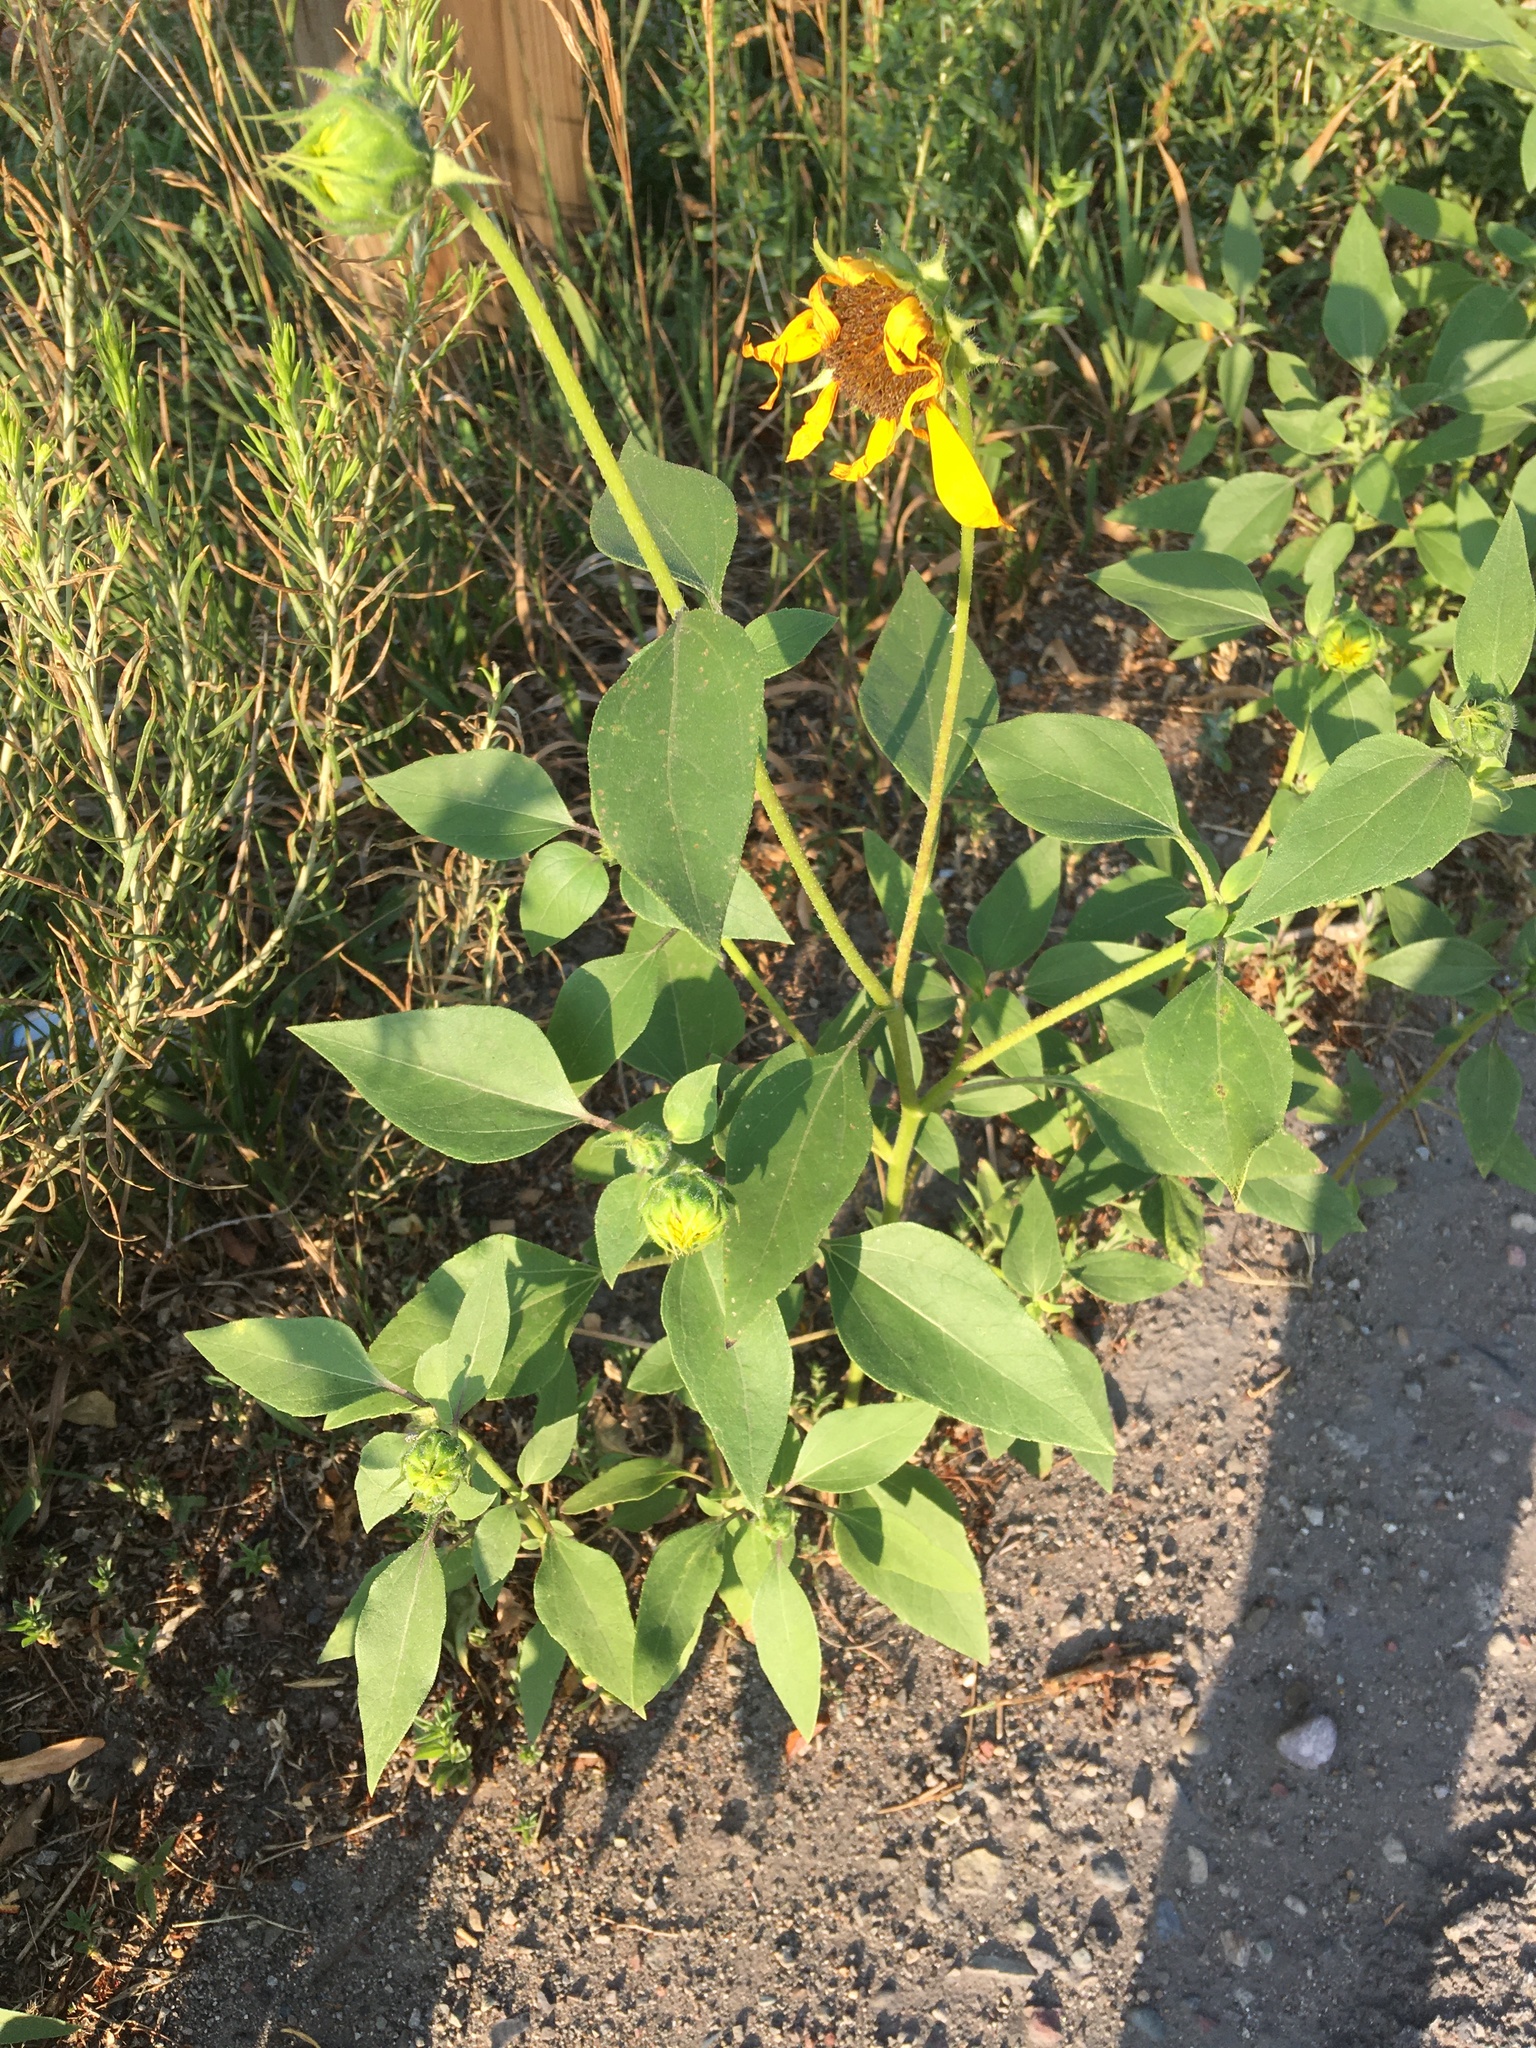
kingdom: Plantae
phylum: Tracheophyta
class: Magnoliopsida
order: Asterales
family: Asteraceae
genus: Helianthus
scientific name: Helianthus annuus
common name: Sunflower
